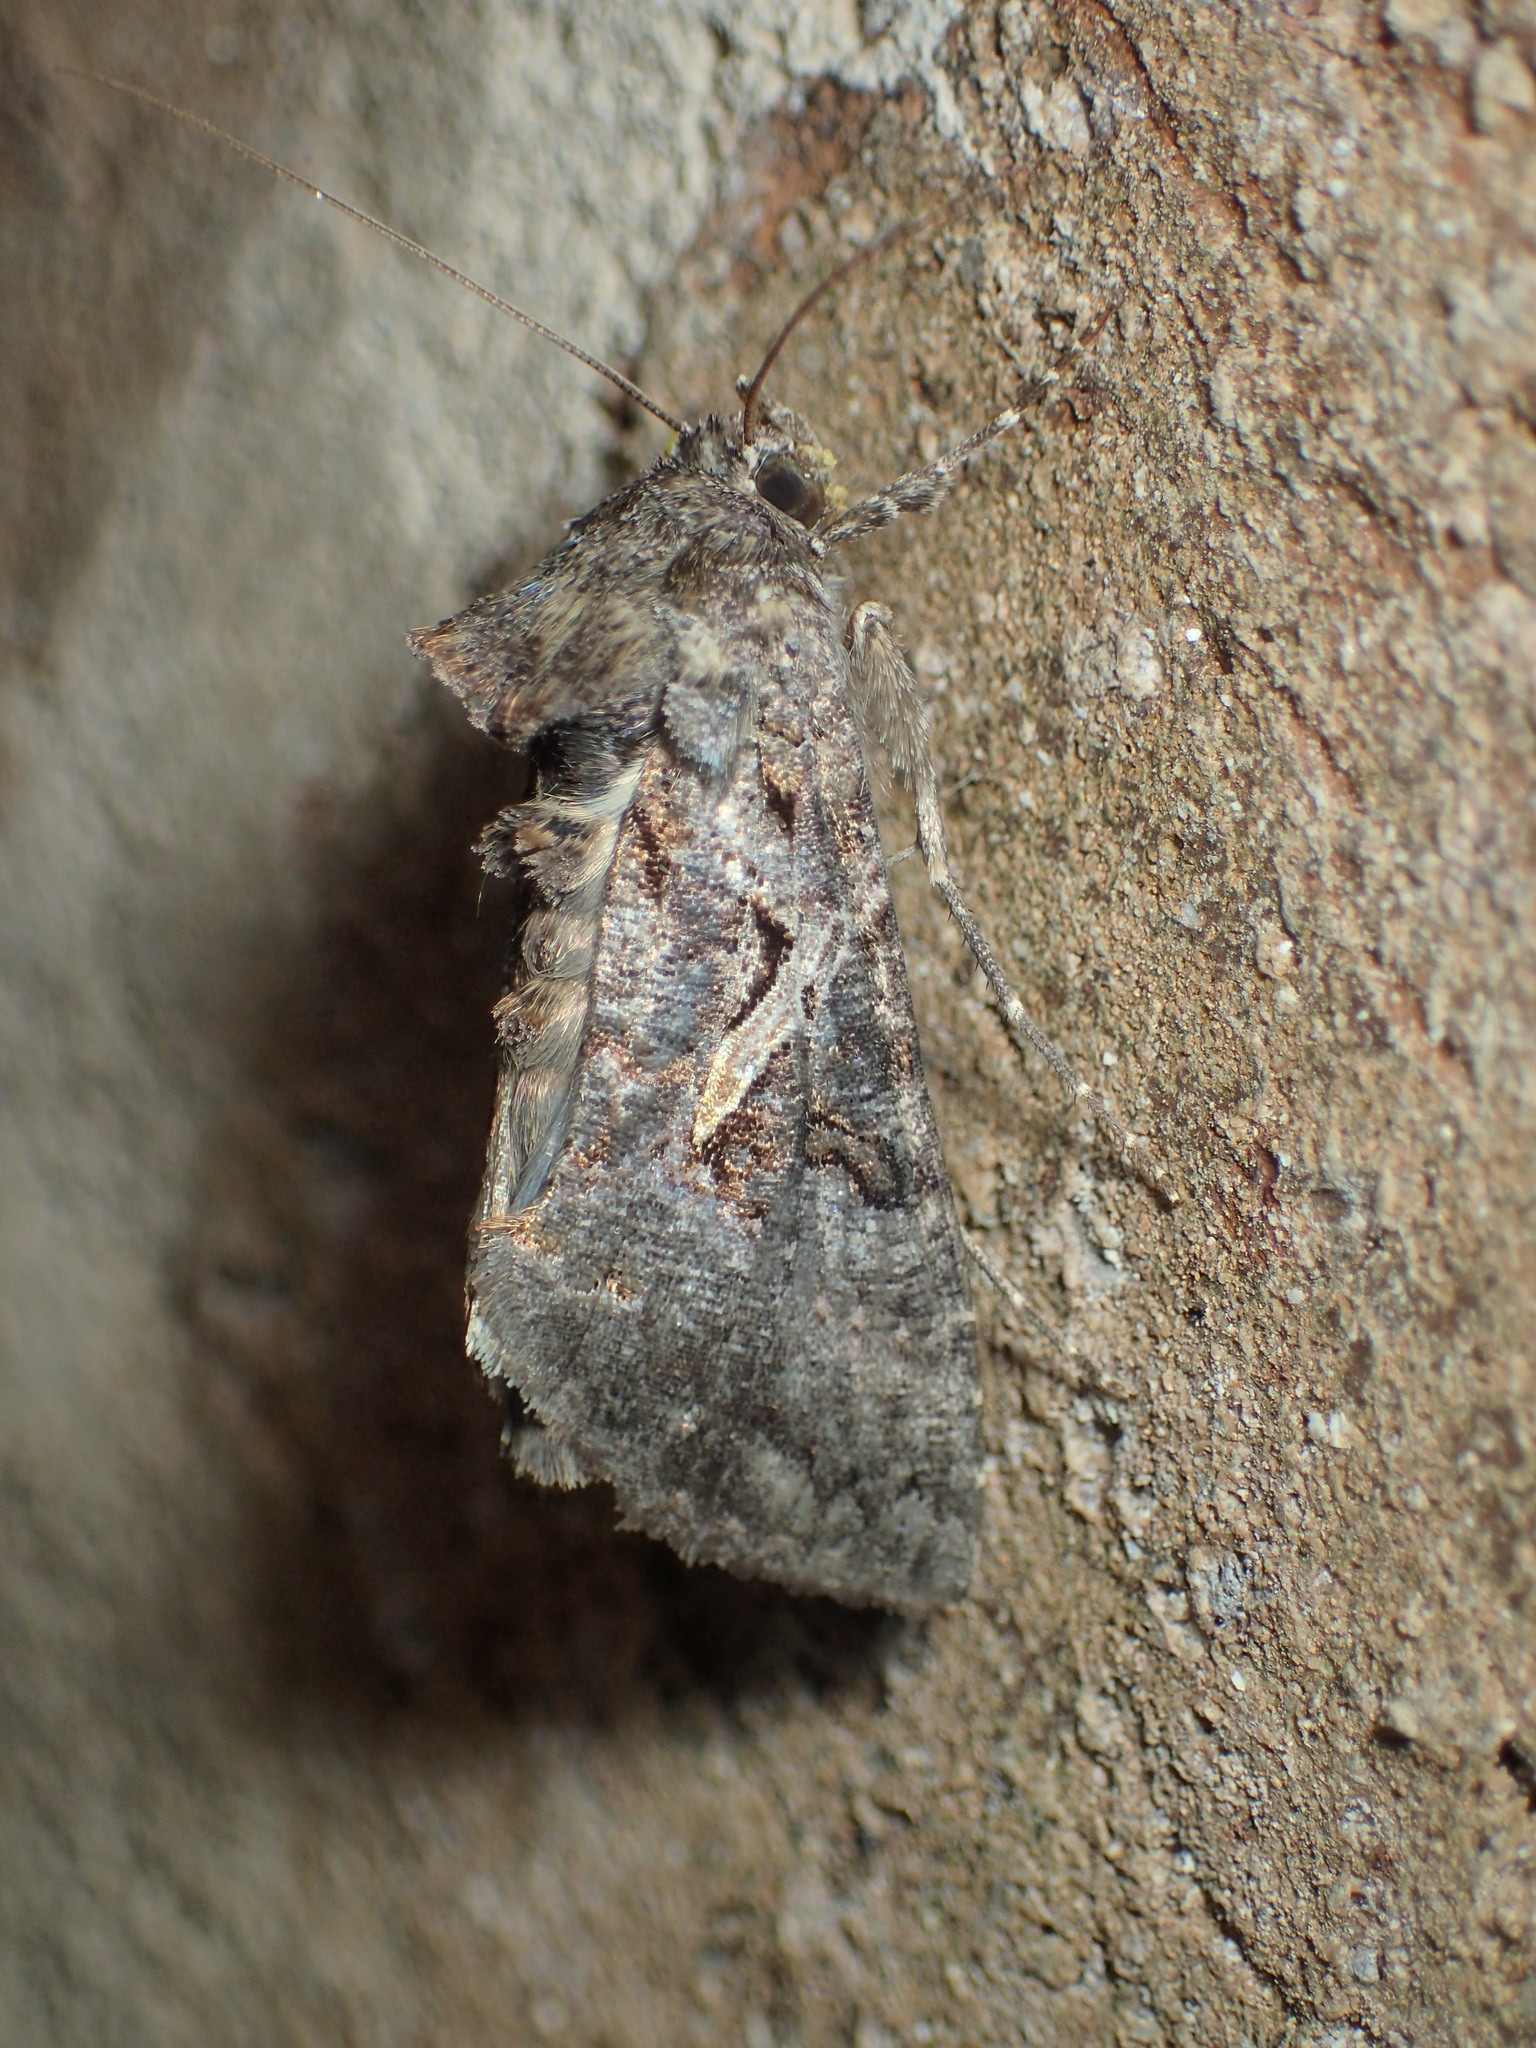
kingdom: Animalia
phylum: Arthropoda
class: Insecta
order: Lepidoptera
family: Noctuidae
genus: Ctenoplusia
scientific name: Ctenoplusia oxygramma
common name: Sharp-stigma looper moth
